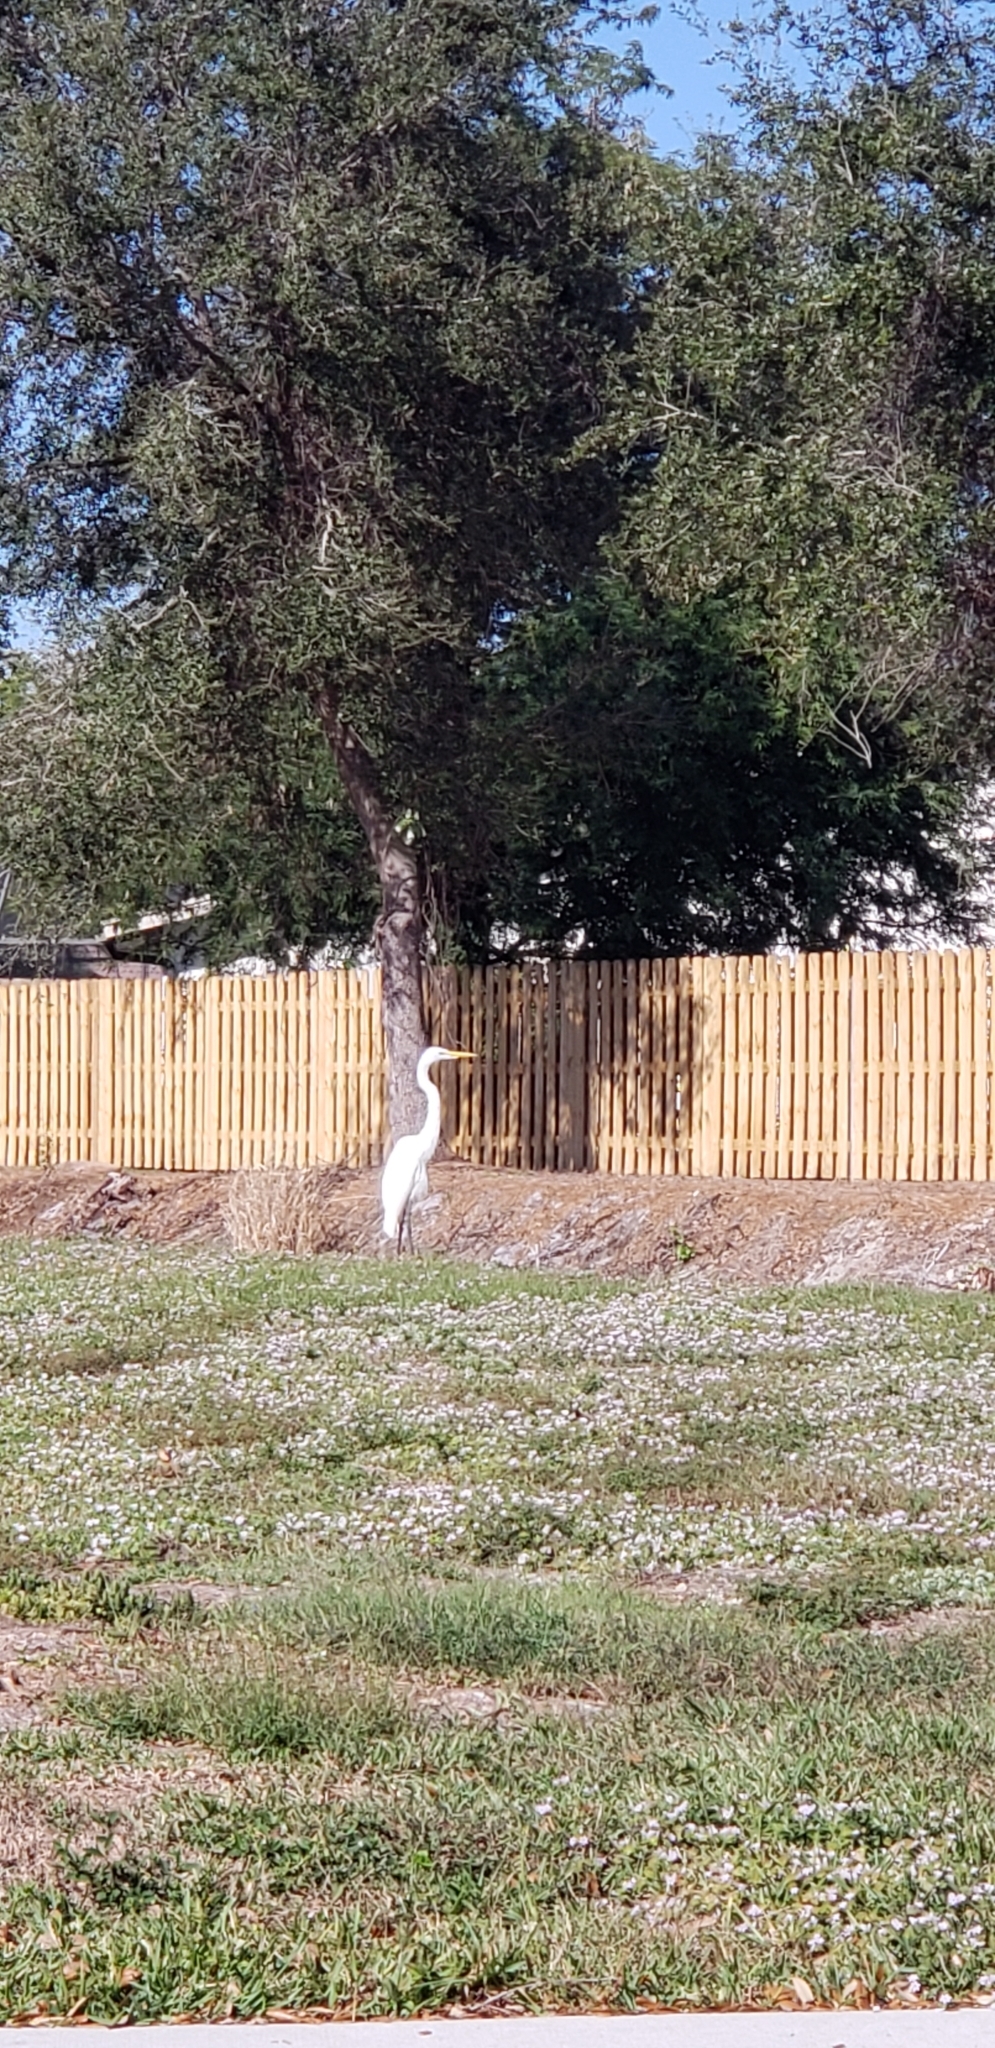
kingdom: Animalia
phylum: Chordata
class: Aves
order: Pelecaniformes
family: Ardeidae
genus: Ardea
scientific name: Ardea alba
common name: Great egret
